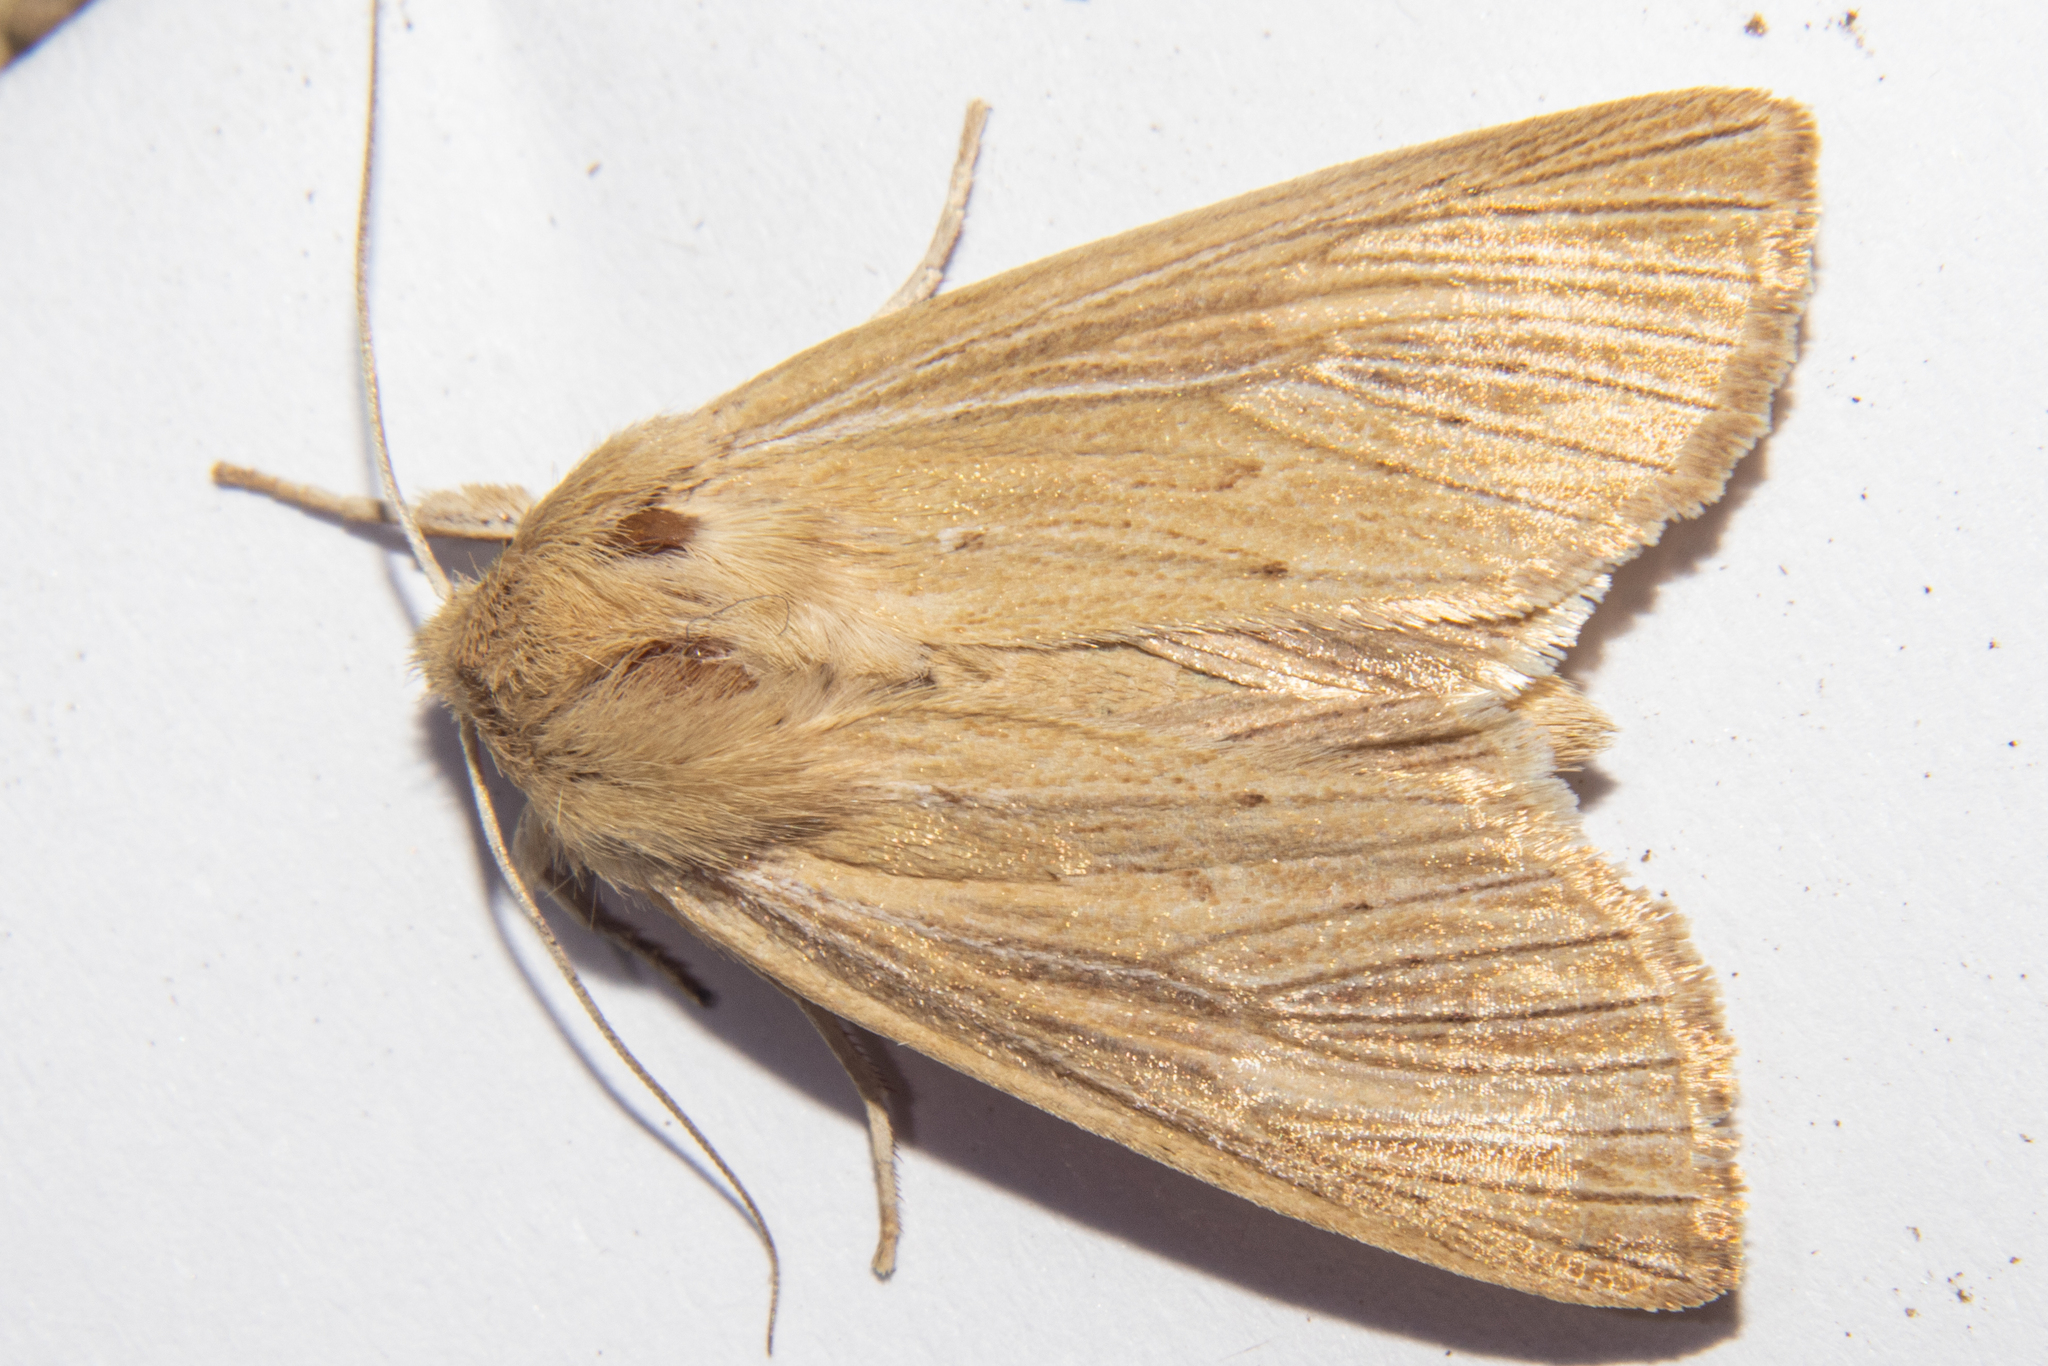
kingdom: Animalia
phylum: Arthropoda
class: Insecta
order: Lepidoptera
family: Noctuidae
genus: Ichneutica
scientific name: Ichneutica arotis
